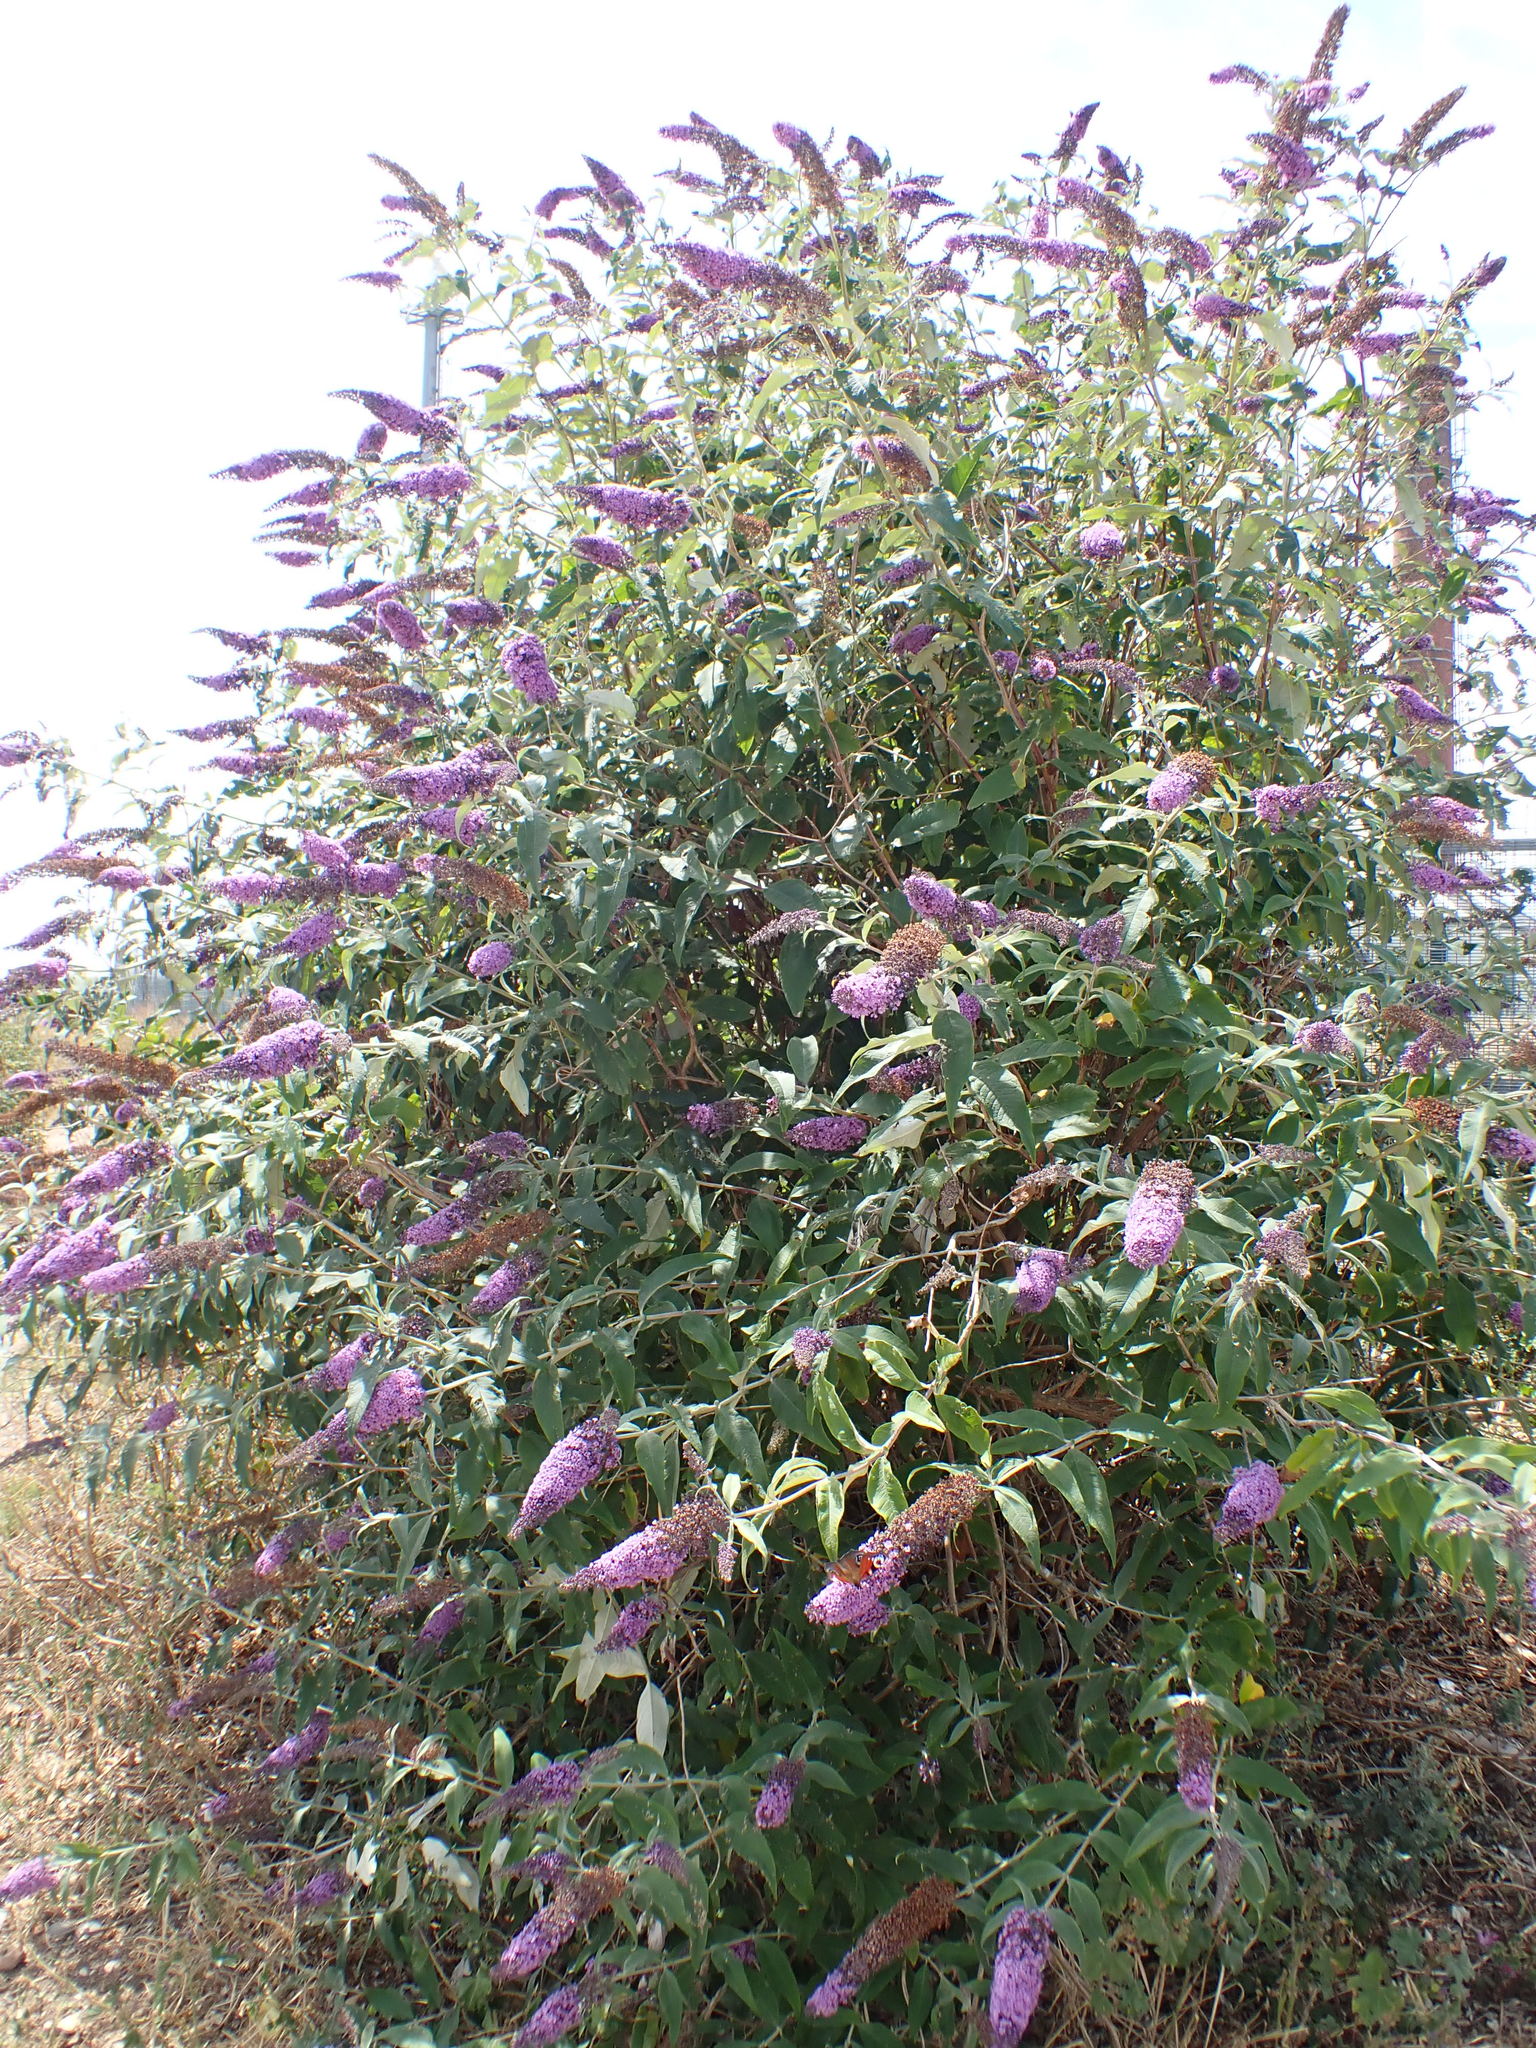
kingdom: Plantae
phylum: Tracheophyta
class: Magnoliopsida
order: Lamiales
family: Scrophulariaceae
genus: Buddleja
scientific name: Buddleja davidii
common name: Butterfly-bush
